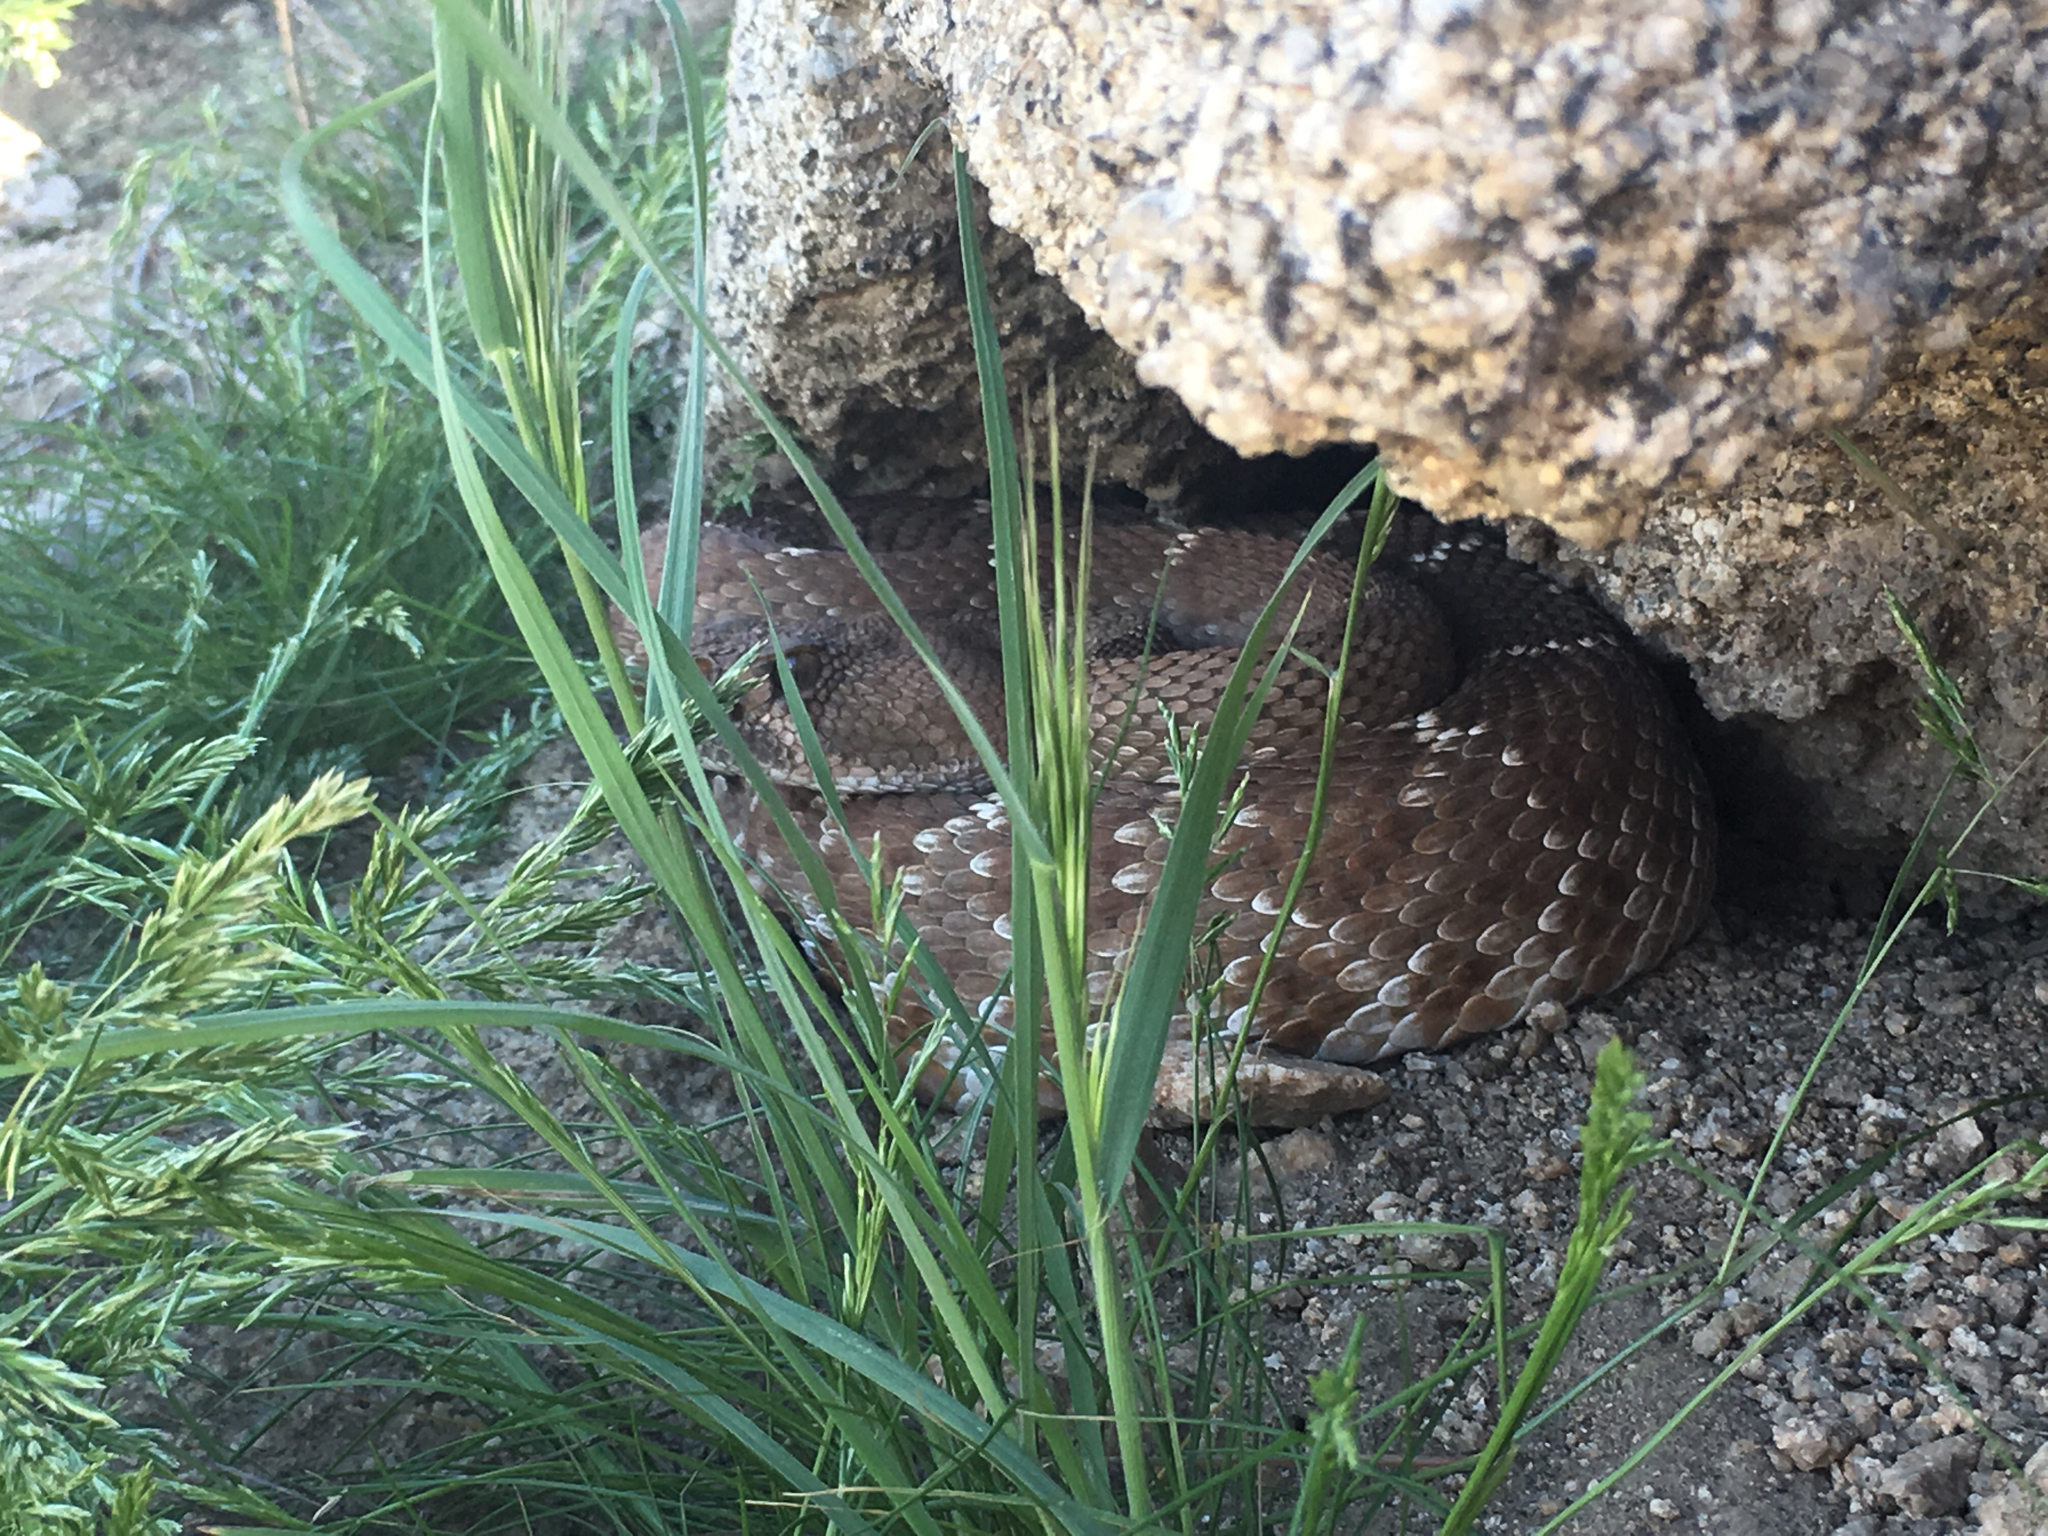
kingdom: Animalia
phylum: Chordata
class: Squamata
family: Viperidae
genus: Crotalus
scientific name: Crotalus ruber
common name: Red diamond rattlesnake
